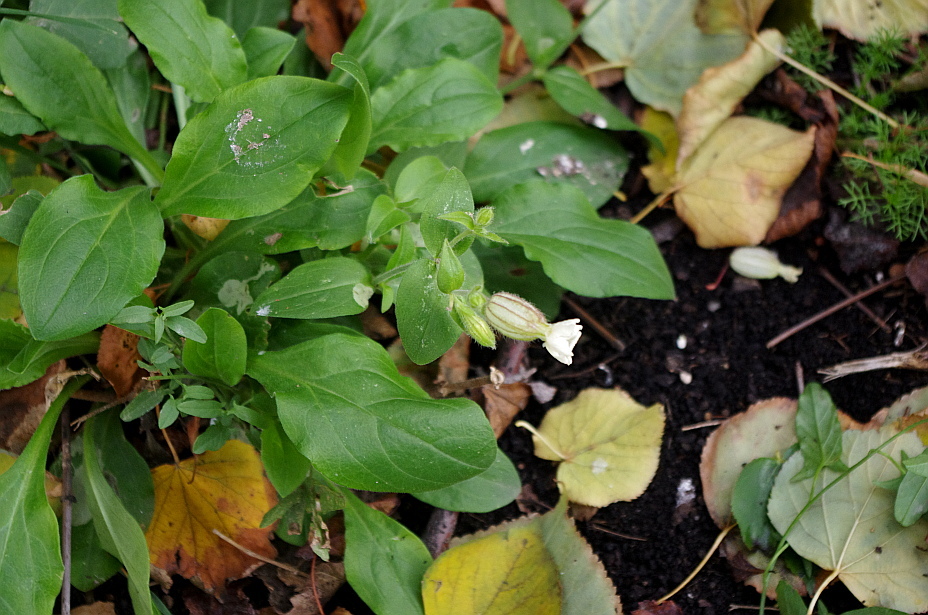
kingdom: Plantae
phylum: Tracheophyta
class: Magnoliopsida
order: Caryophyllales
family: Caryophyllaceae
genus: Silene
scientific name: Silene latifolia
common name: White campion
